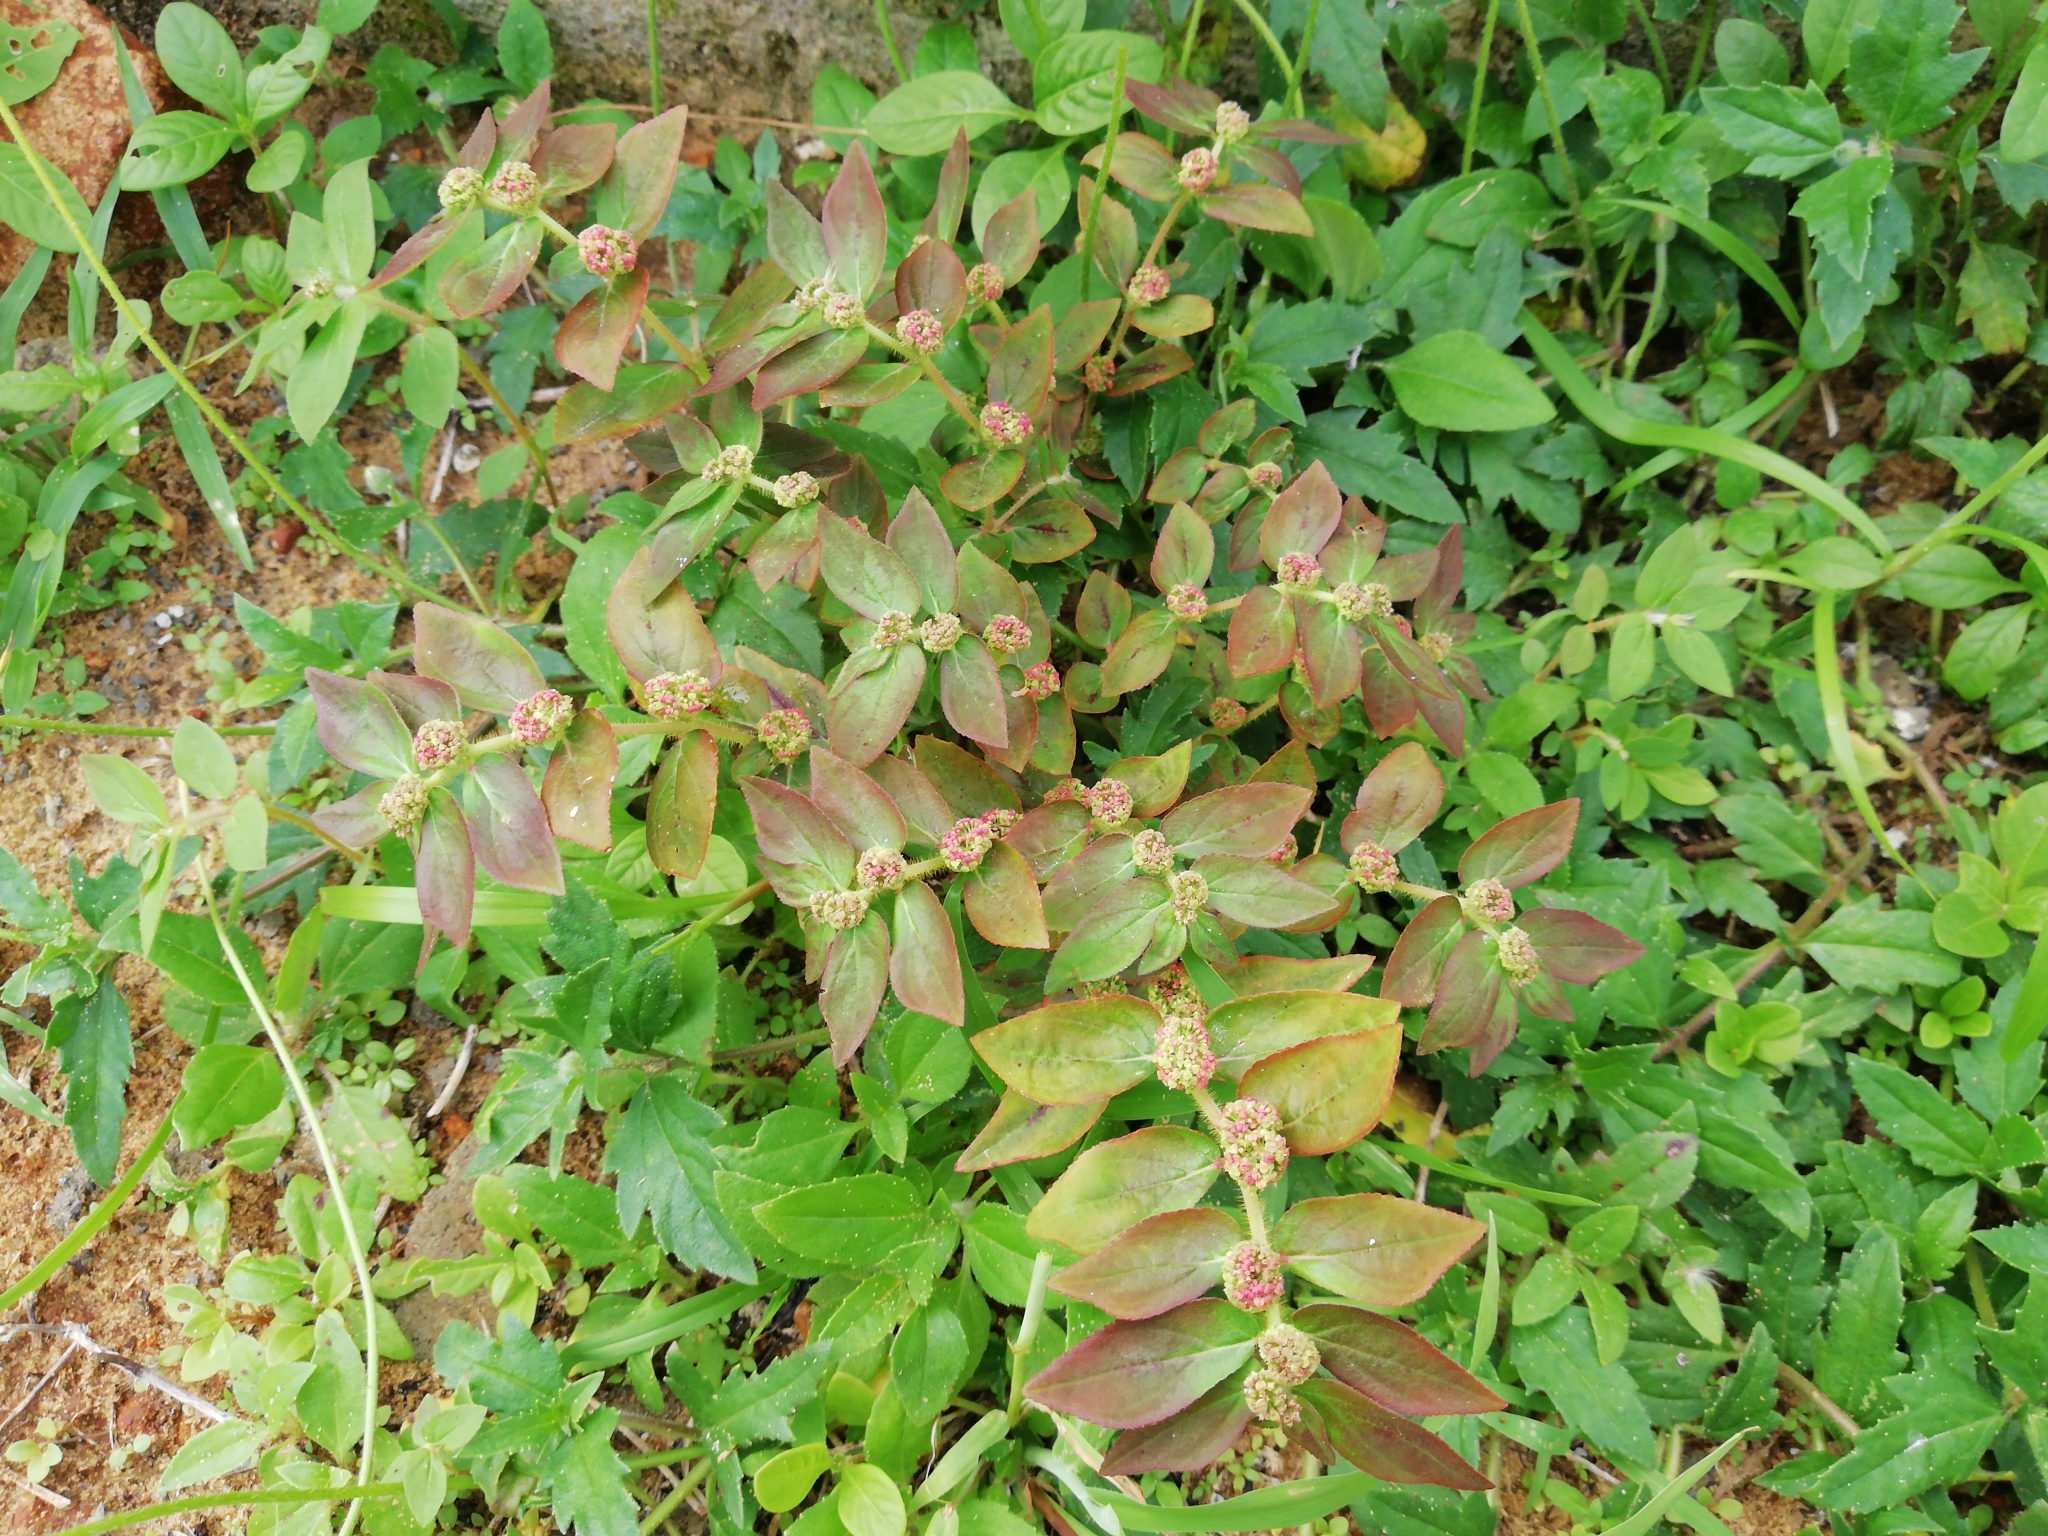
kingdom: Plantae
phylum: Tracheophyta
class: Magnoliopsida
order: Malpighiales
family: Euphorbiaceae
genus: Euphorbia
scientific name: Euphorbia hirta
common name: Pillpod sandmat
